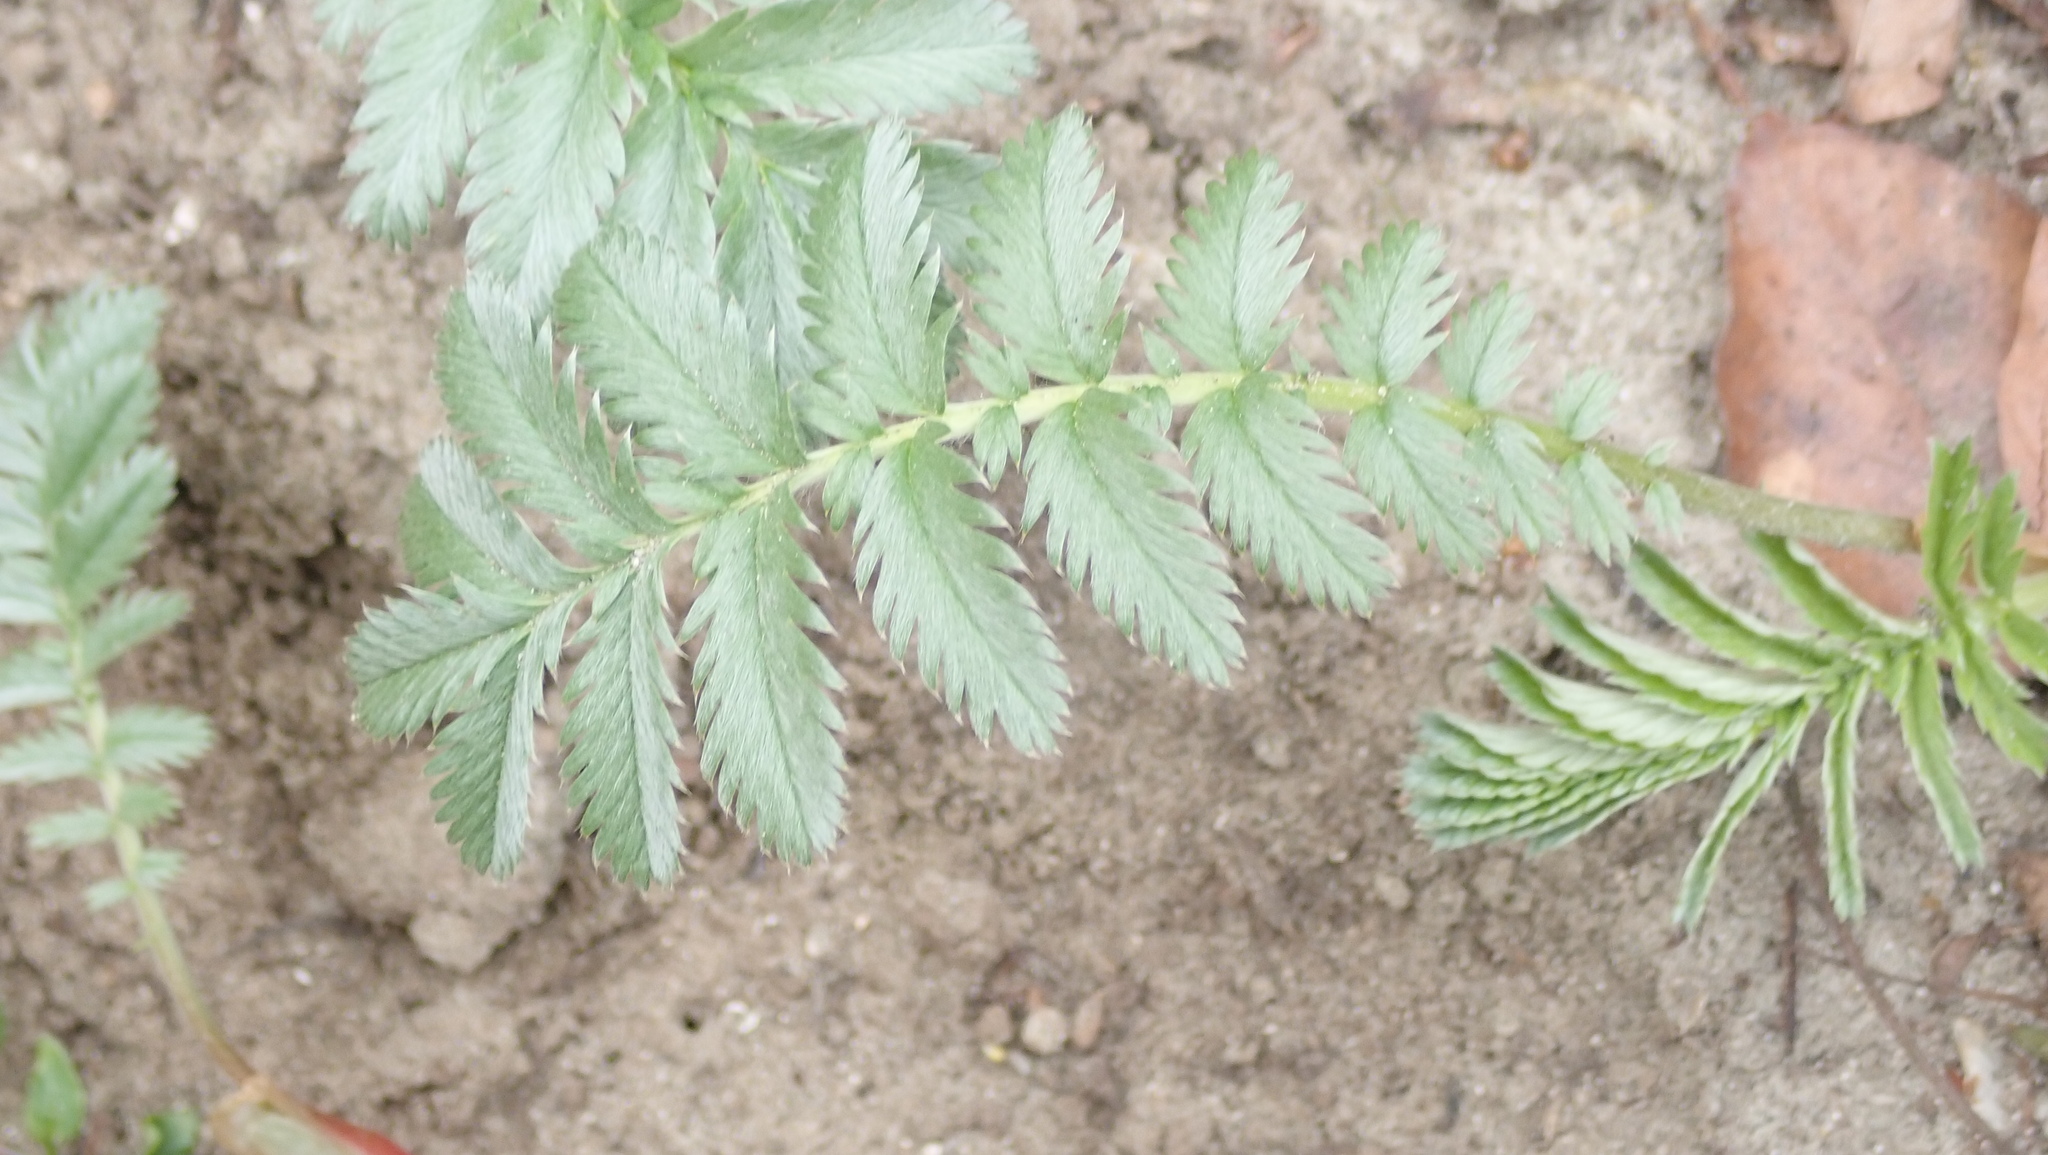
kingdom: Plantae
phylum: Tracheophyta
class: Magnoliopsida
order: Rosales
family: Rosaceae
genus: Argentina
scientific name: Argentina anserina
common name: Common silverweed
